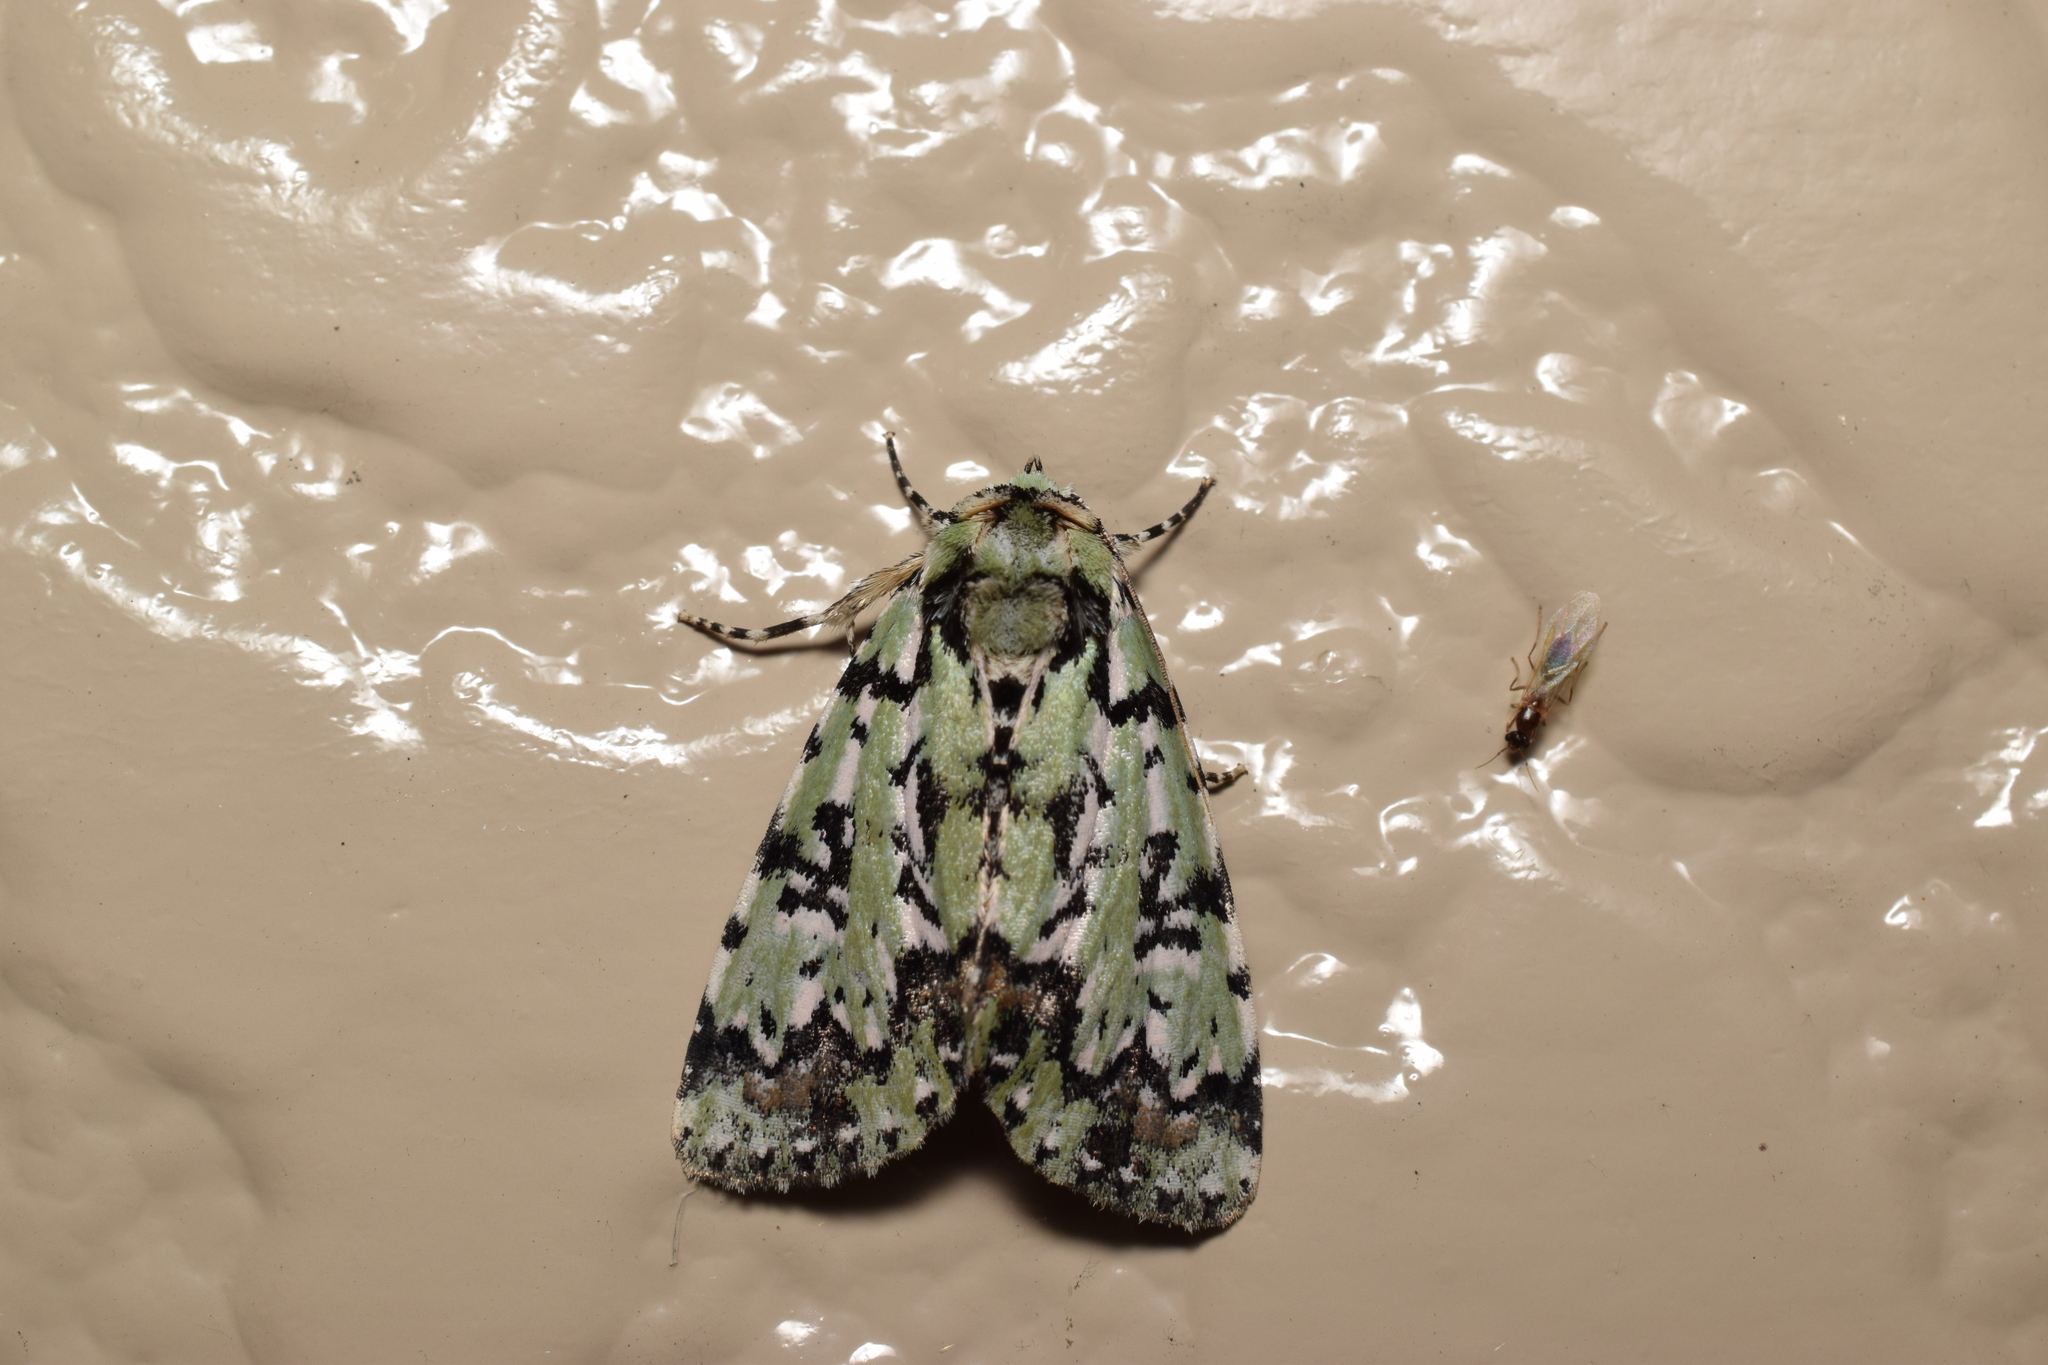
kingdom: Animalia
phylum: Arthropoda
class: Insecta
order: Lepidoptera
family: Noctuidae
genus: Moma
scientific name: Moma alpium
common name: Scarce merveille du jour
